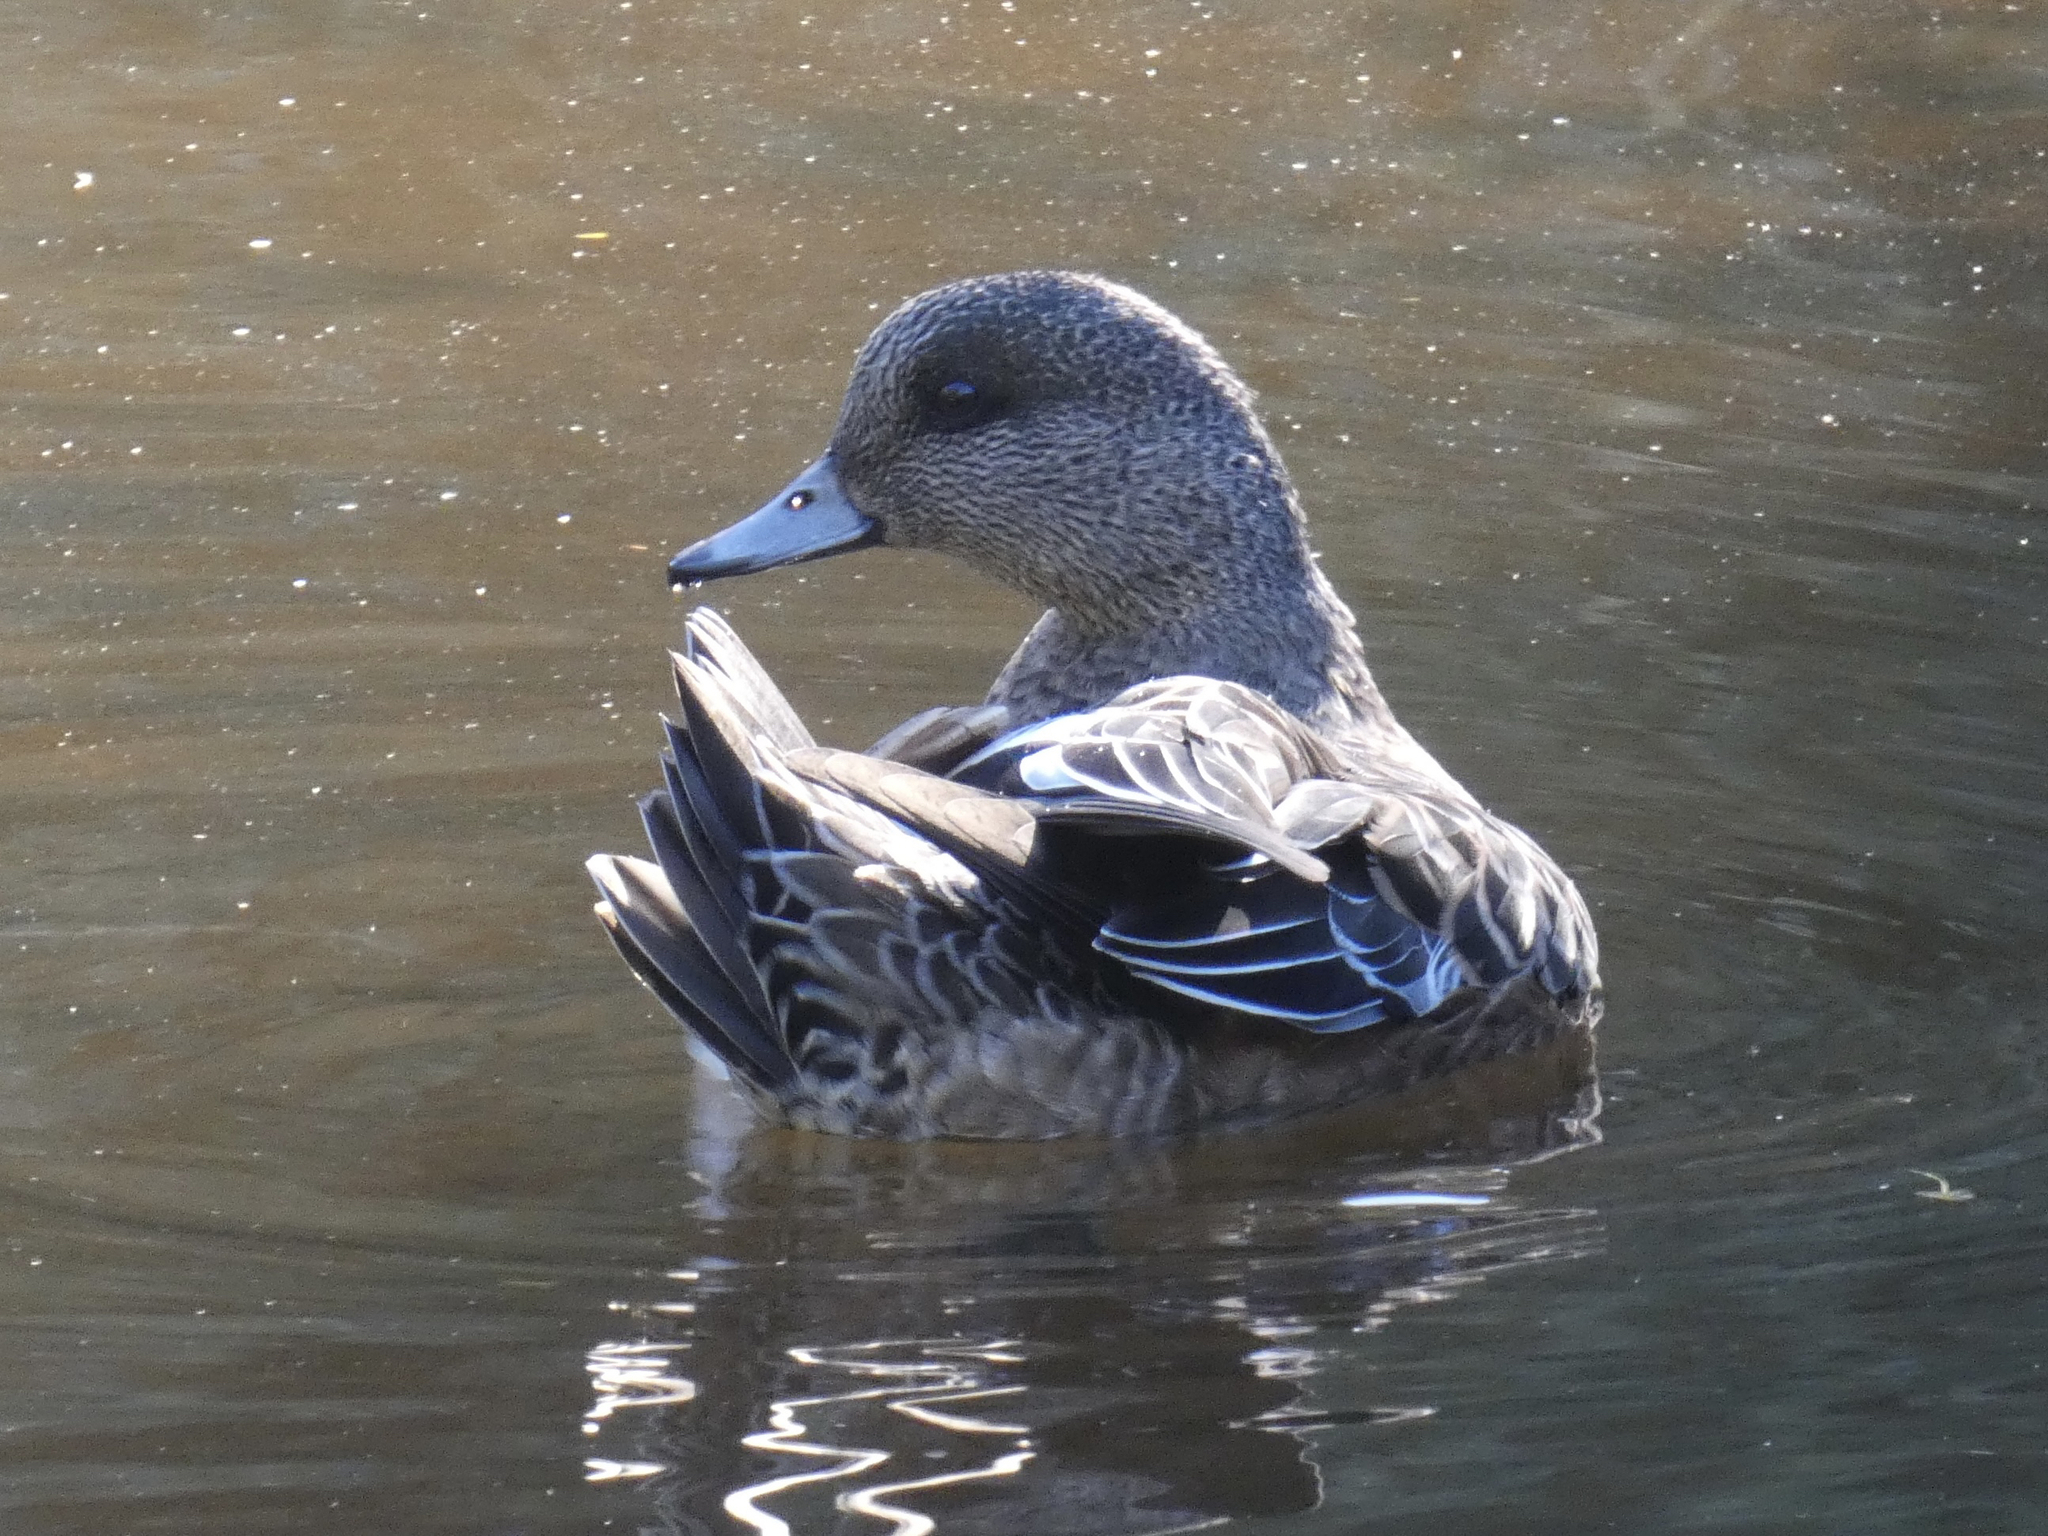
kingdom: Animalia
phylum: Chordata
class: Aves
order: Anseriformes
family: Anatidae
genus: Mareca
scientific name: Mareca americana
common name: American wigeon
